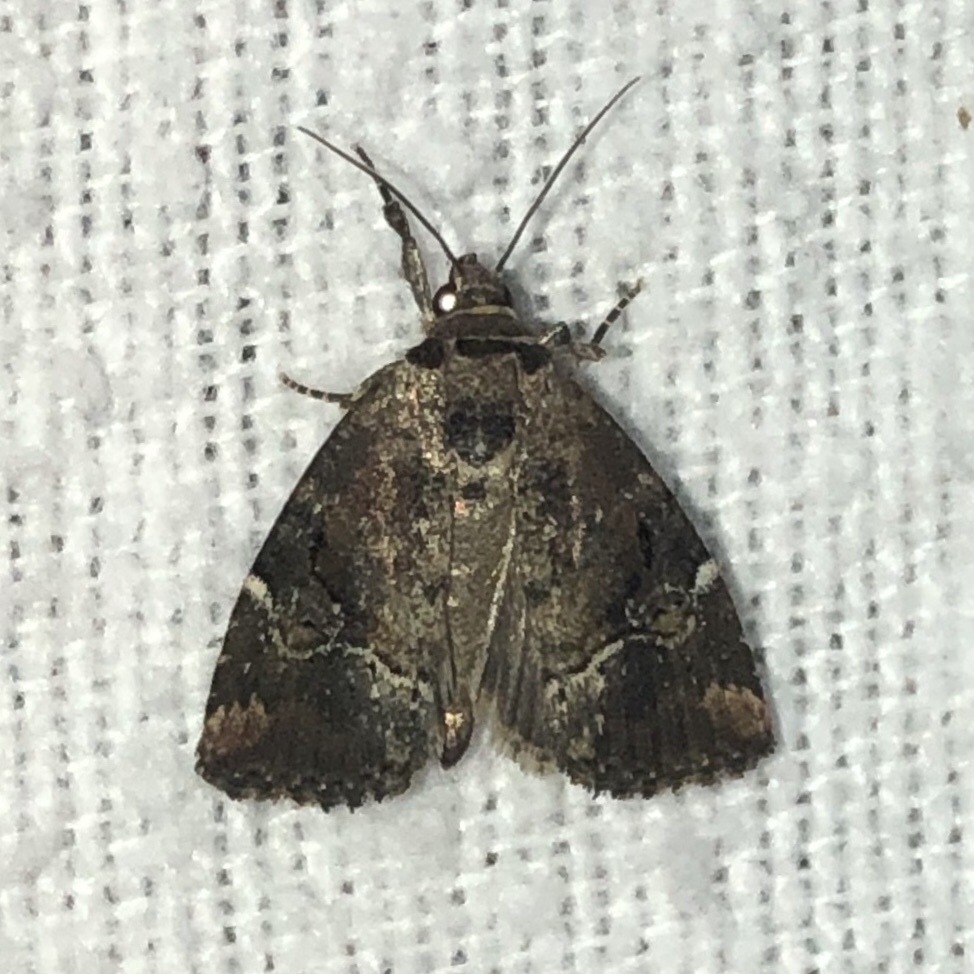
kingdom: Animalia
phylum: Arthropoda
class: Insecta
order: Lepidoptera
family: Noctuidae
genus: Elaphria
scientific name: Elaphria versicolor
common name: Fir harlequin
